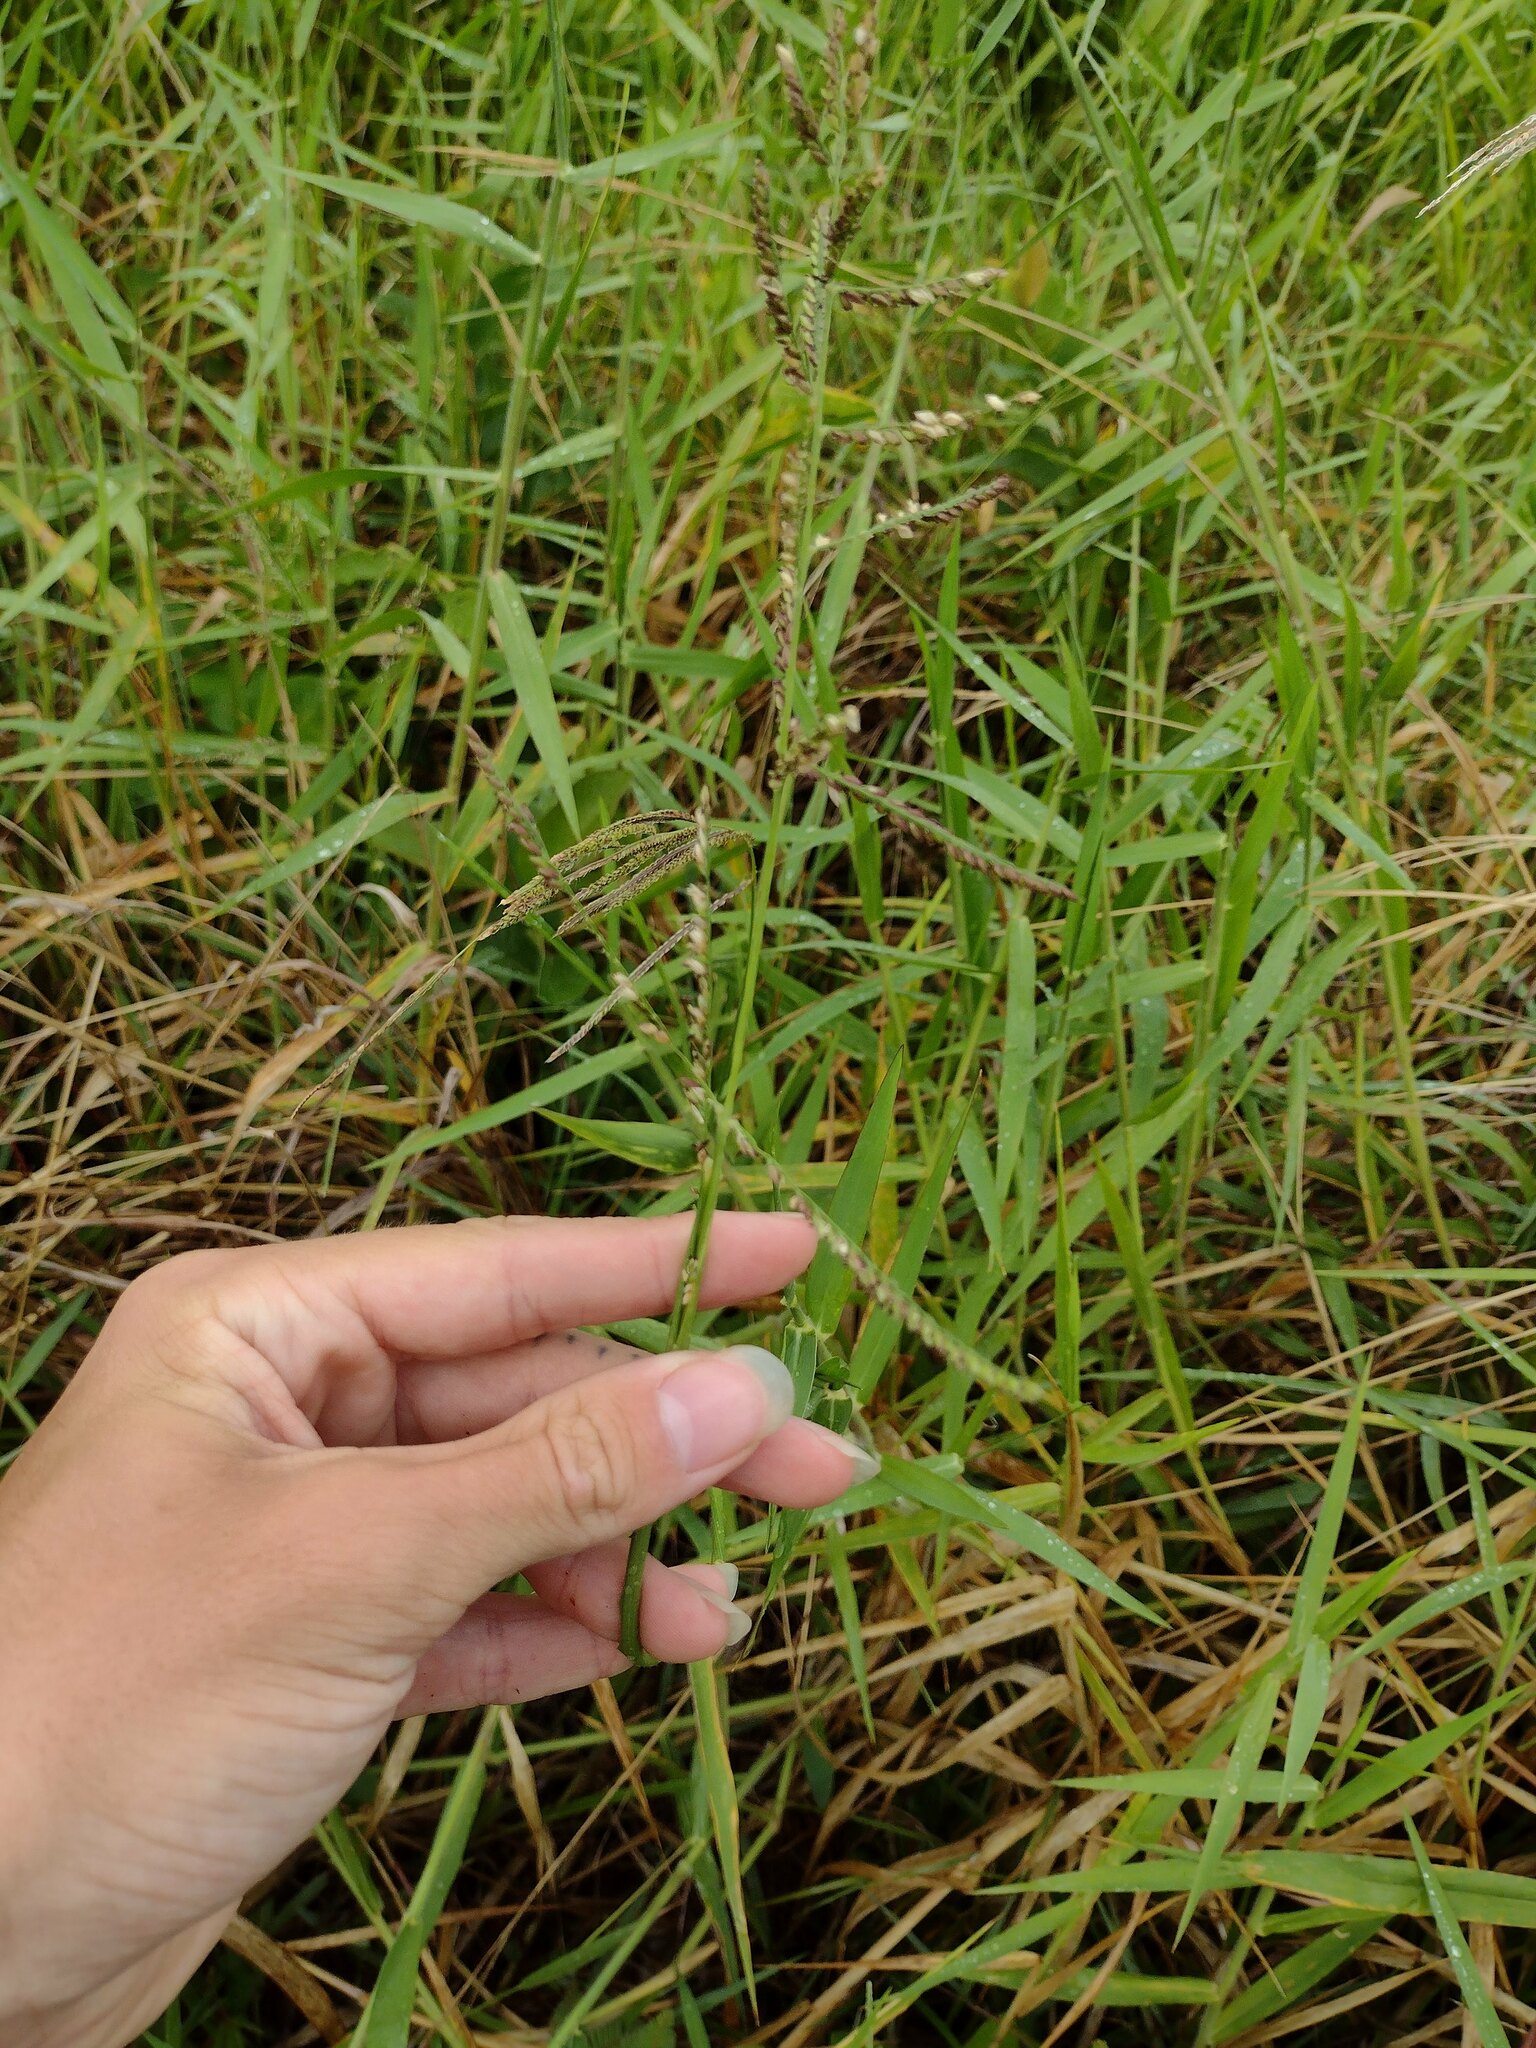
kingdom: Plantae
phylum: Tracheophyta
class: Liliopsida
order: Poales
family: Poaceae
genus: Urochloa
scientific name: Urochloa mutica
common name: Para grass
